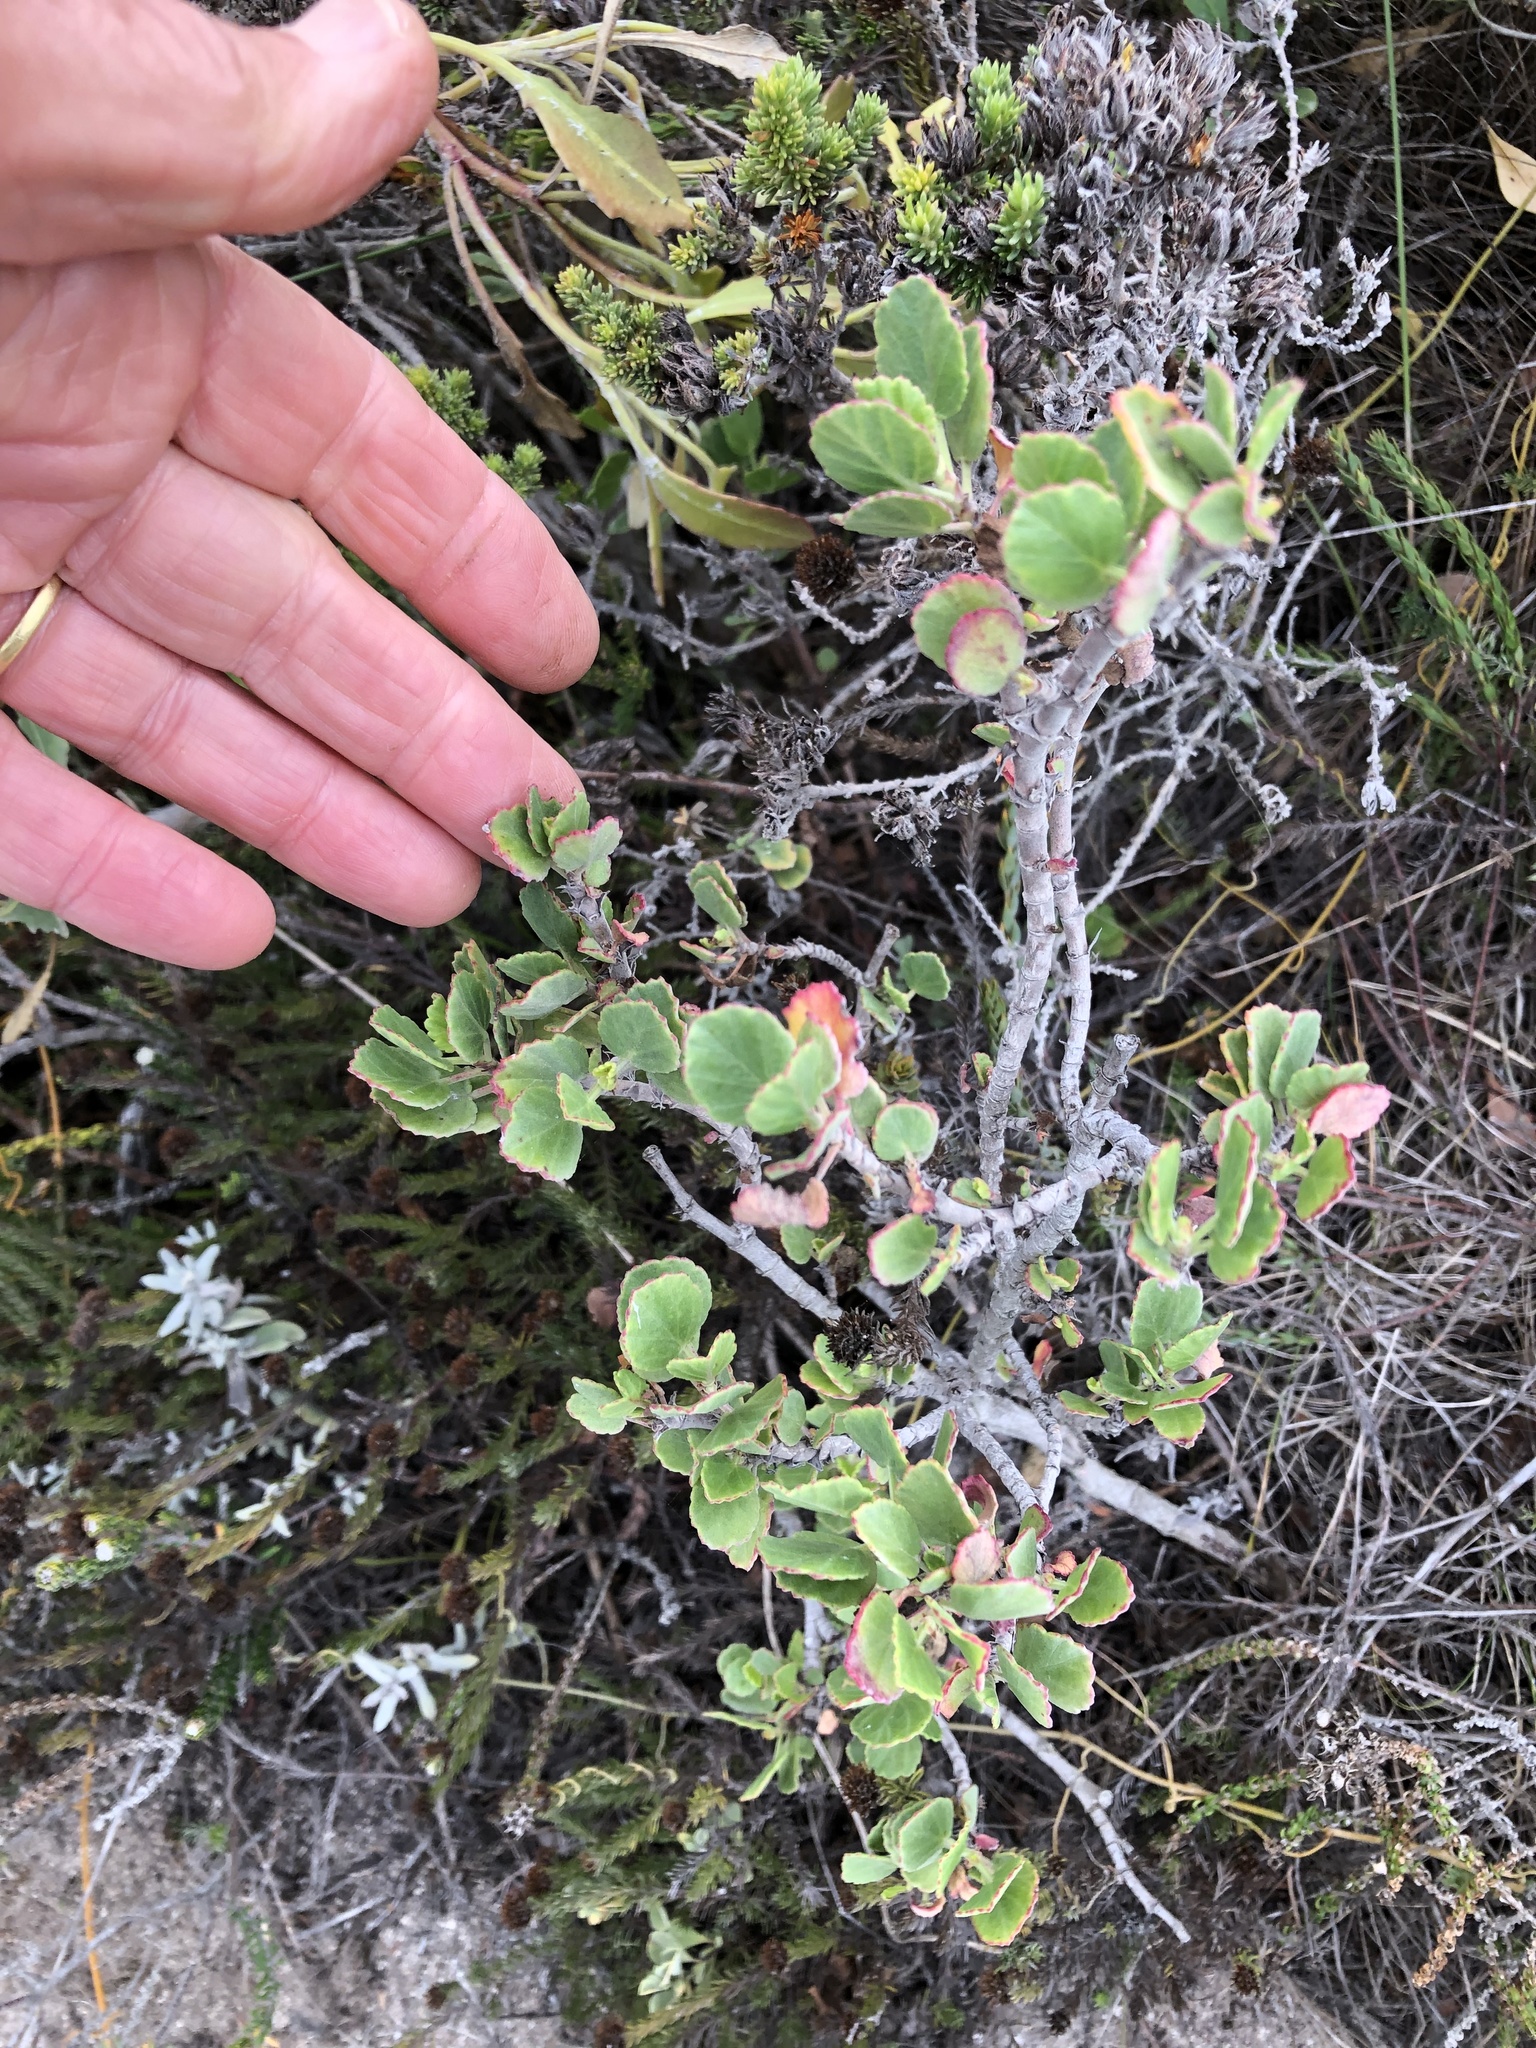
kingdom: Plantae
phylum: Tracheophyta
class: Magnoliopsida
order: Geraniales
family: Geraniaceae
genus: Pelargonium
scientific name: Pelargonium betulinum
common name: Birch-leaf pelargonium
